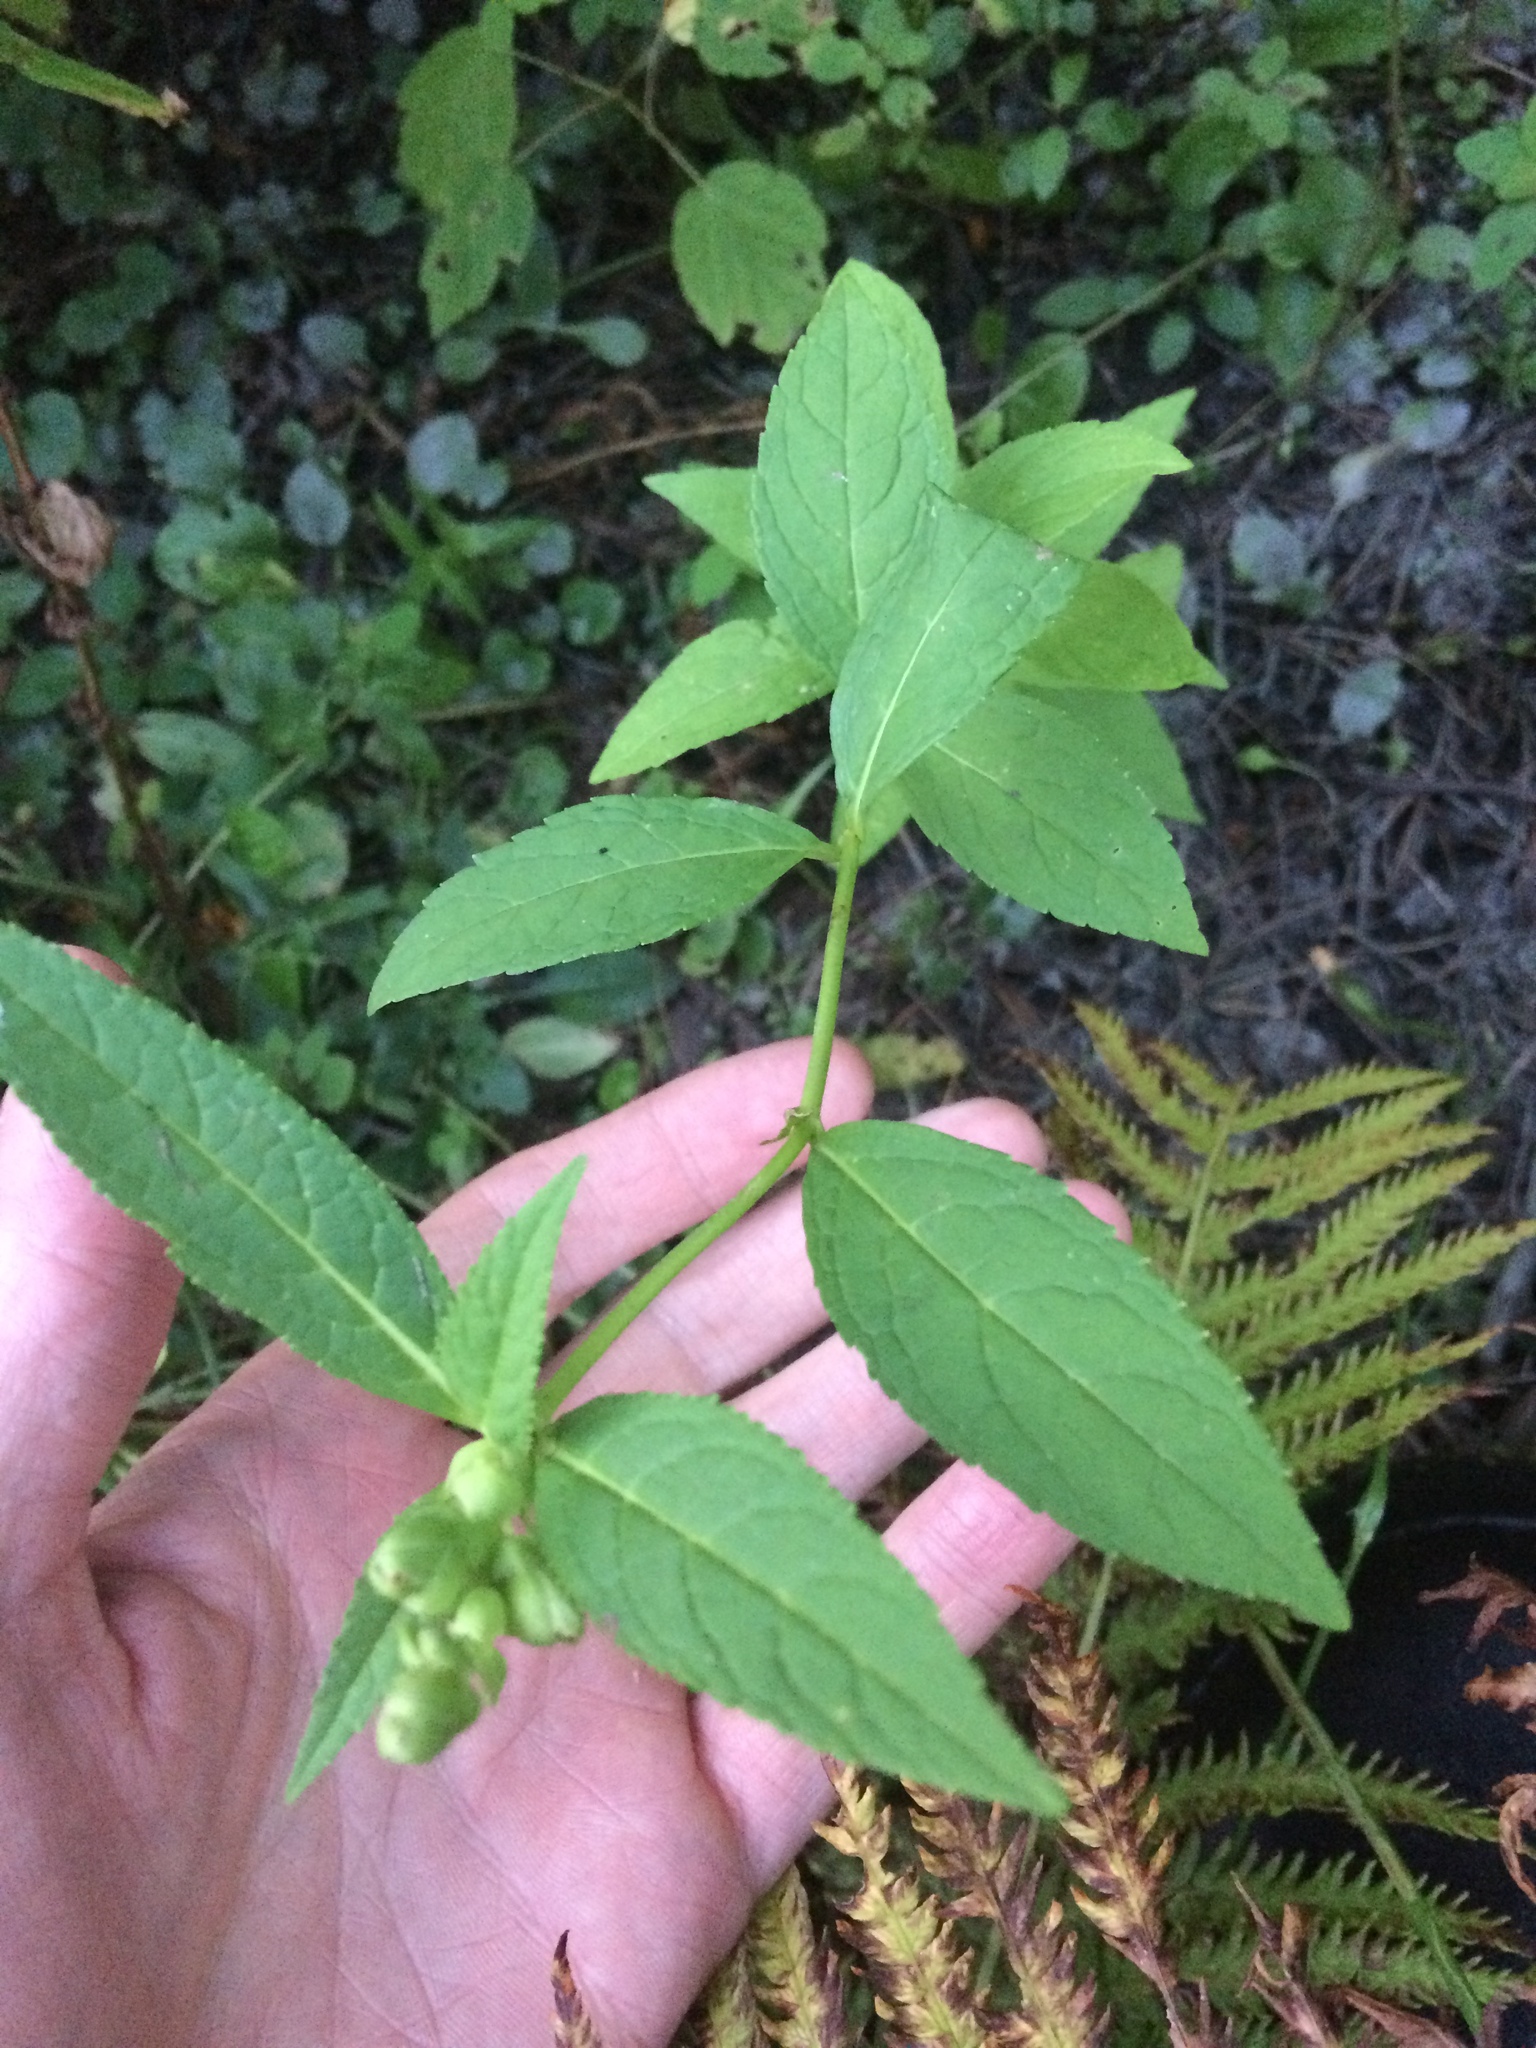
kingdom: Plantae
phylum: Tracheophyta
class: Magnoliopsida
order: Lamiales
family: Plantaginaceae
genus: Chelone
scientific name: Chelone glabra
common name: Snakehead
